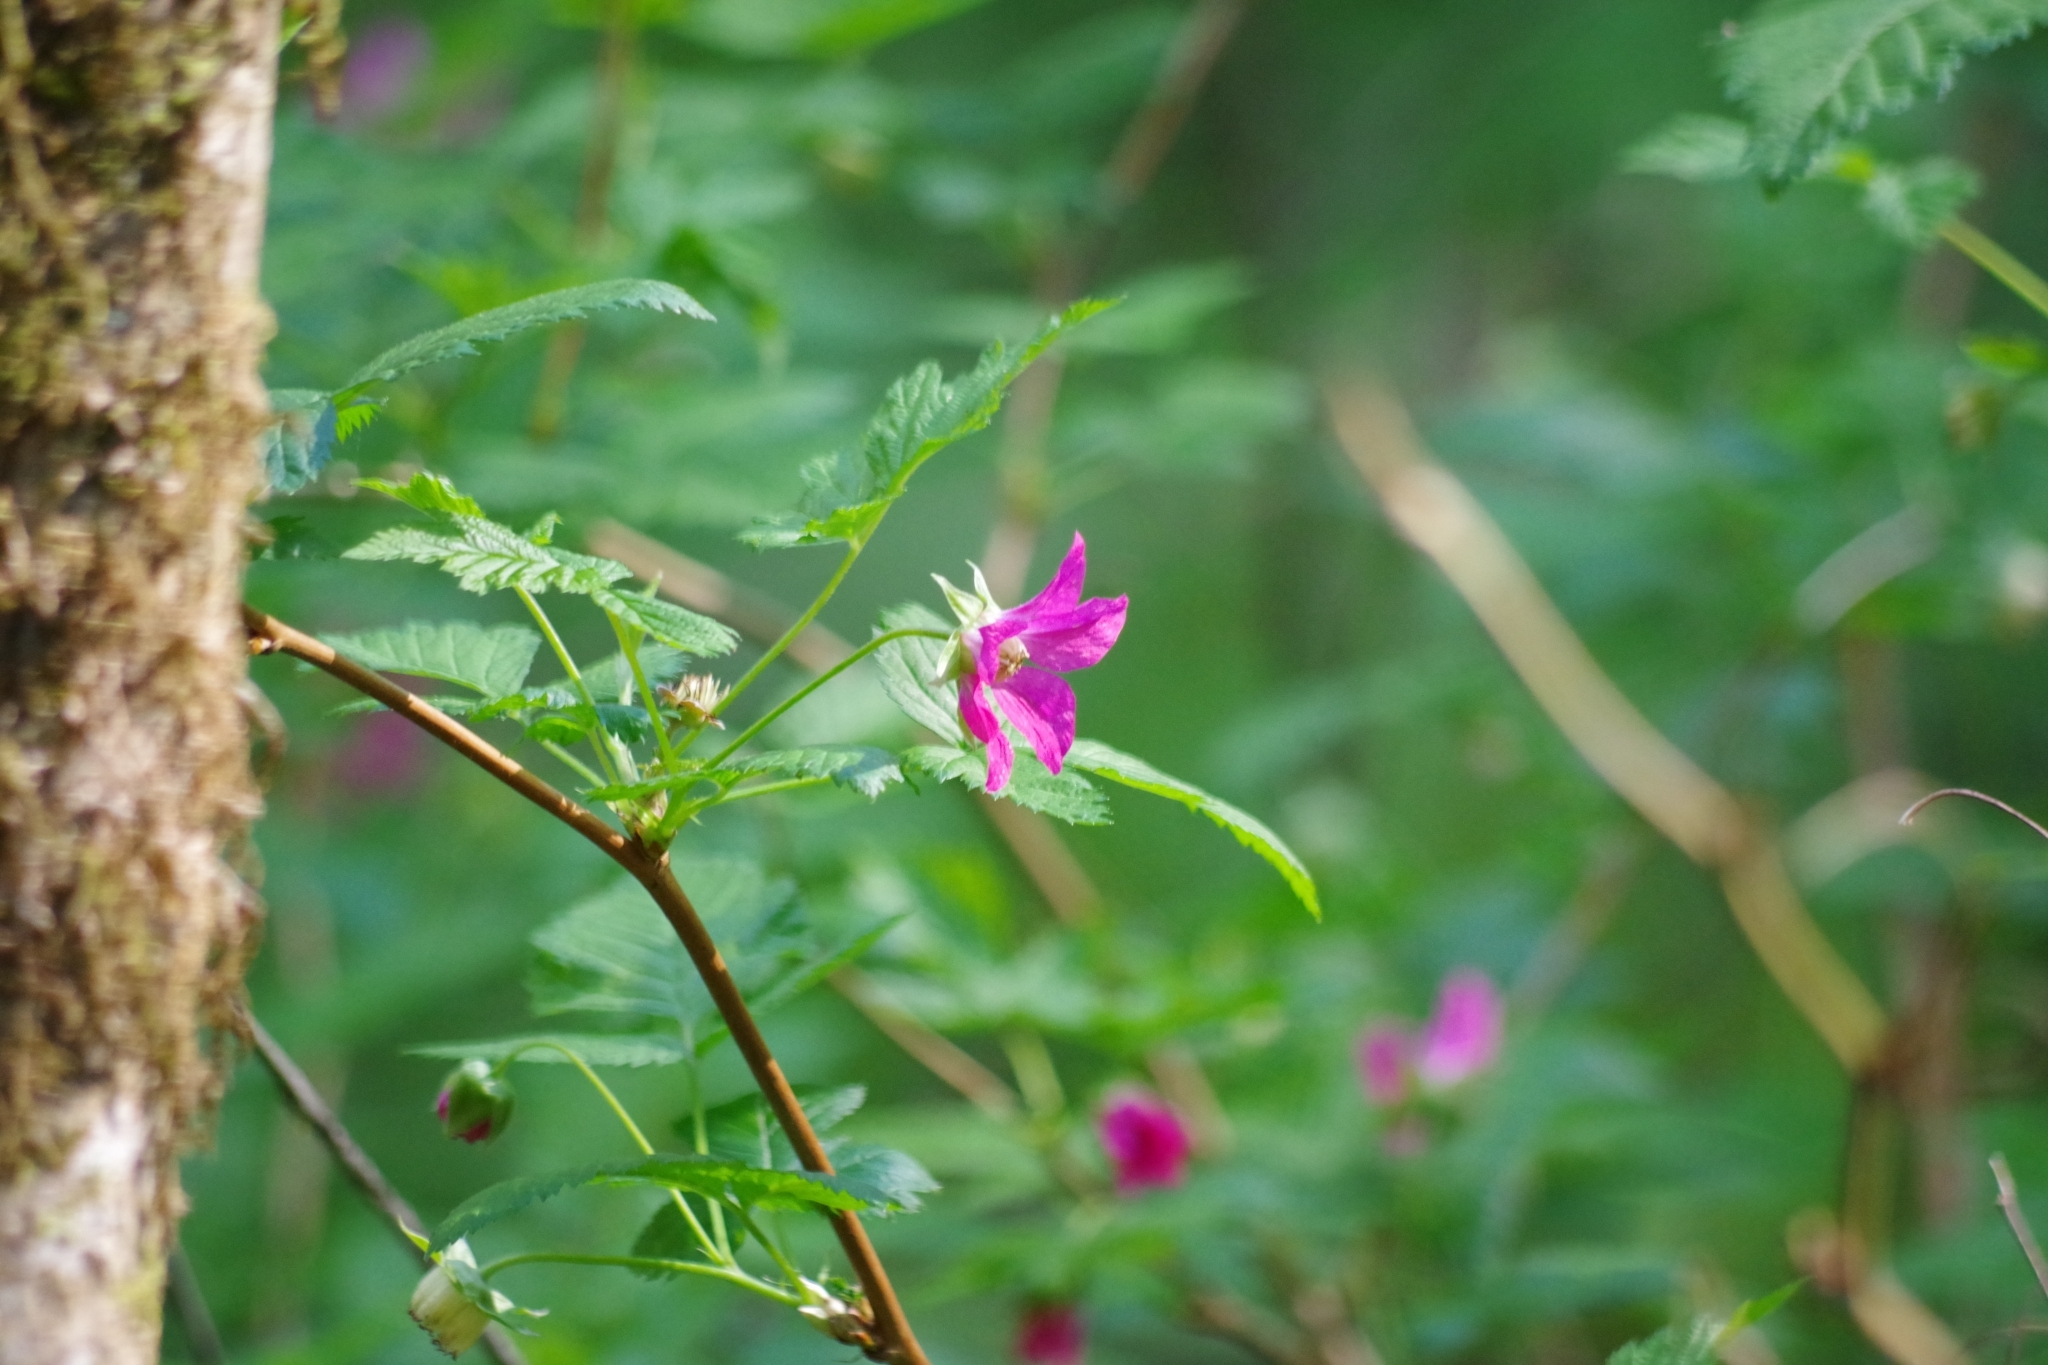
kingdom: Plantae
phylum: Tracheophyta
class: Magnoliopsida
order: Rosales
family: Rosaceae
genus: Rubus
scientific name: Rubus spectabilis
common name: Salmonberry
